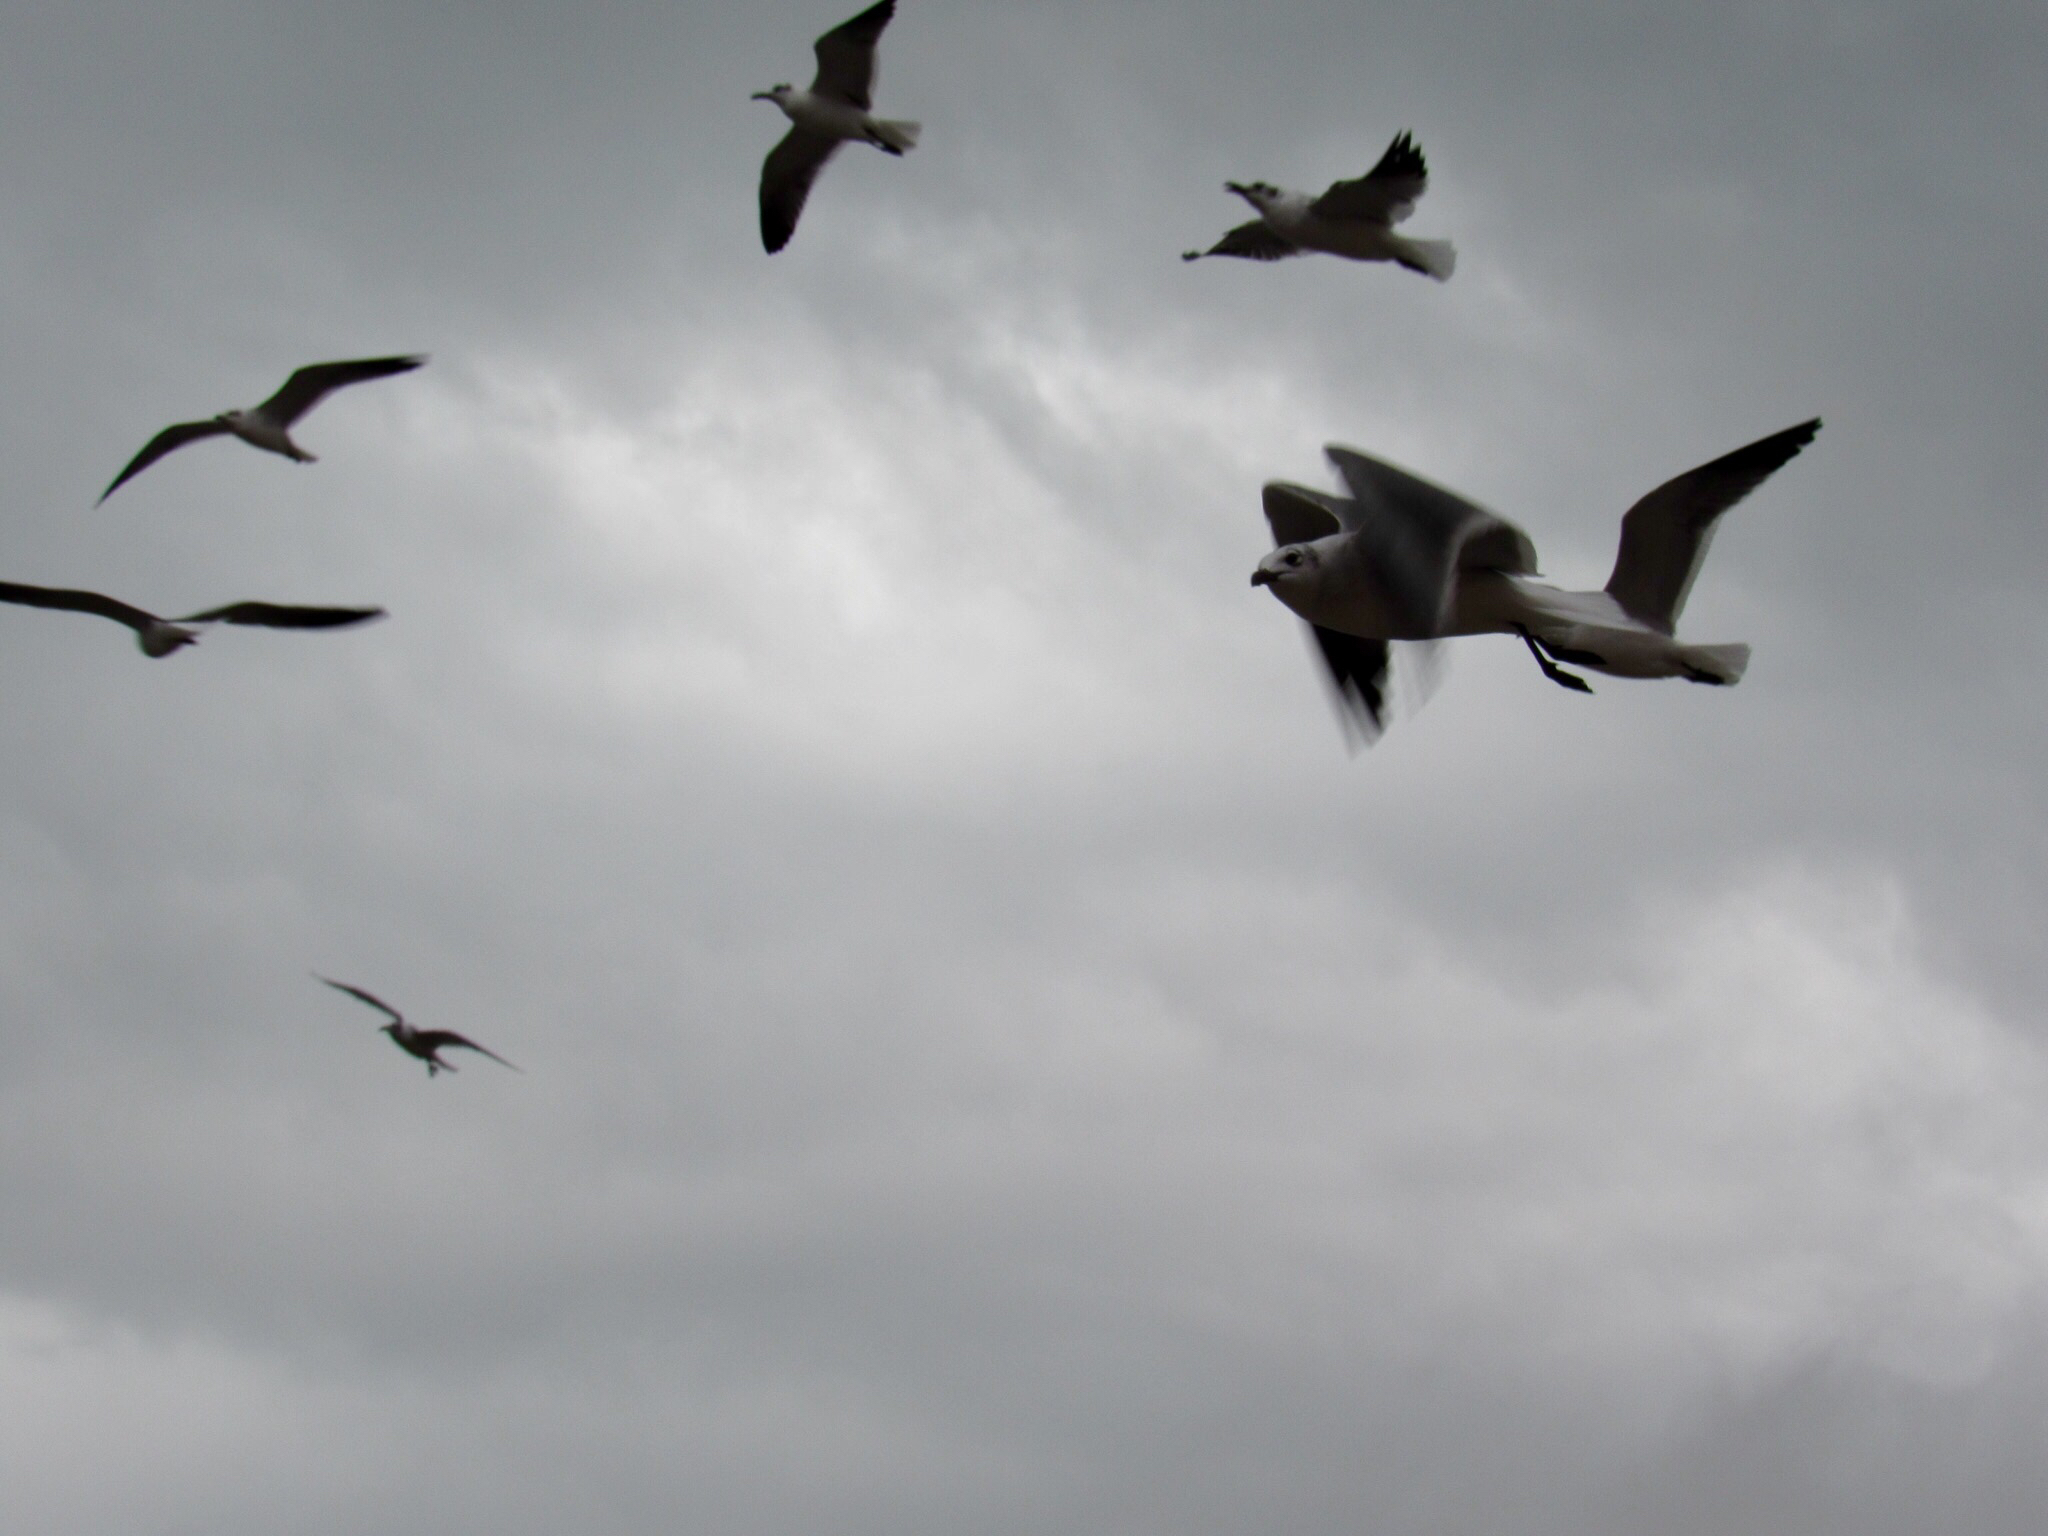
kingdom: Animalia
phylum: Chordata
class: Aves
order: Charadriiformes
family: Laridae
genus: Leucophaeus
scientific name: Leucophaeus atricilla
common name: Laughing gull
